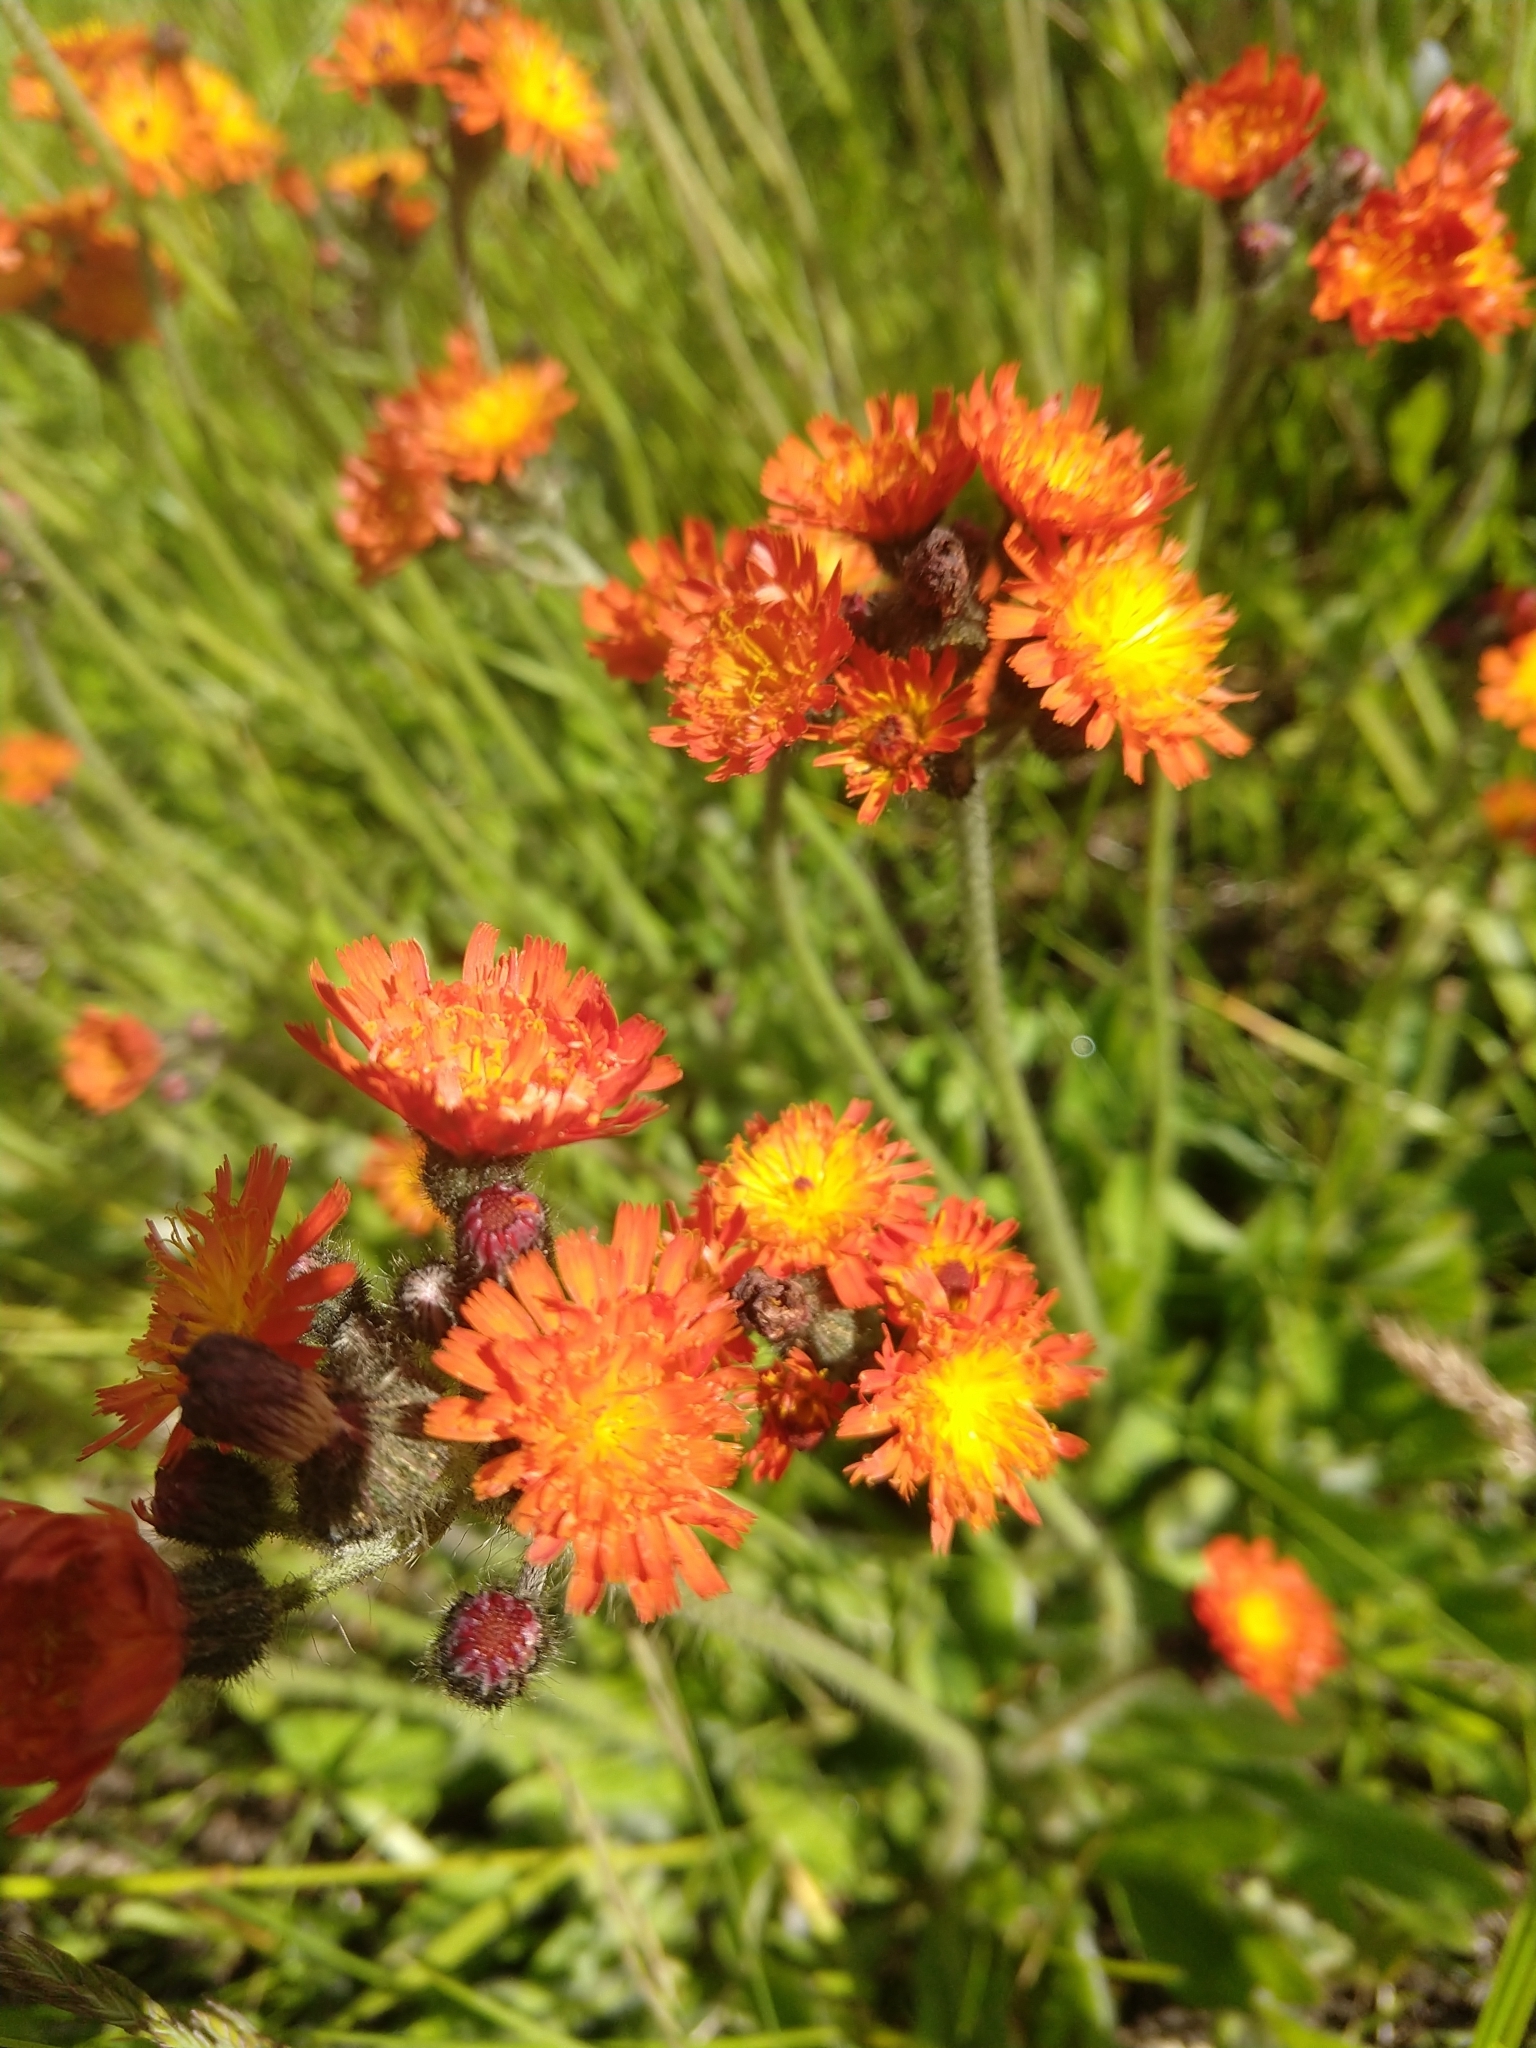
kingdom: Plantae
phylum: Tracheophyta
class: Magnoliopsida
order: Asterales
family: Asteraceae
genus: Pilosella
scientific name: Pilosella aurantiaca
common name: Fox-and-cubs
